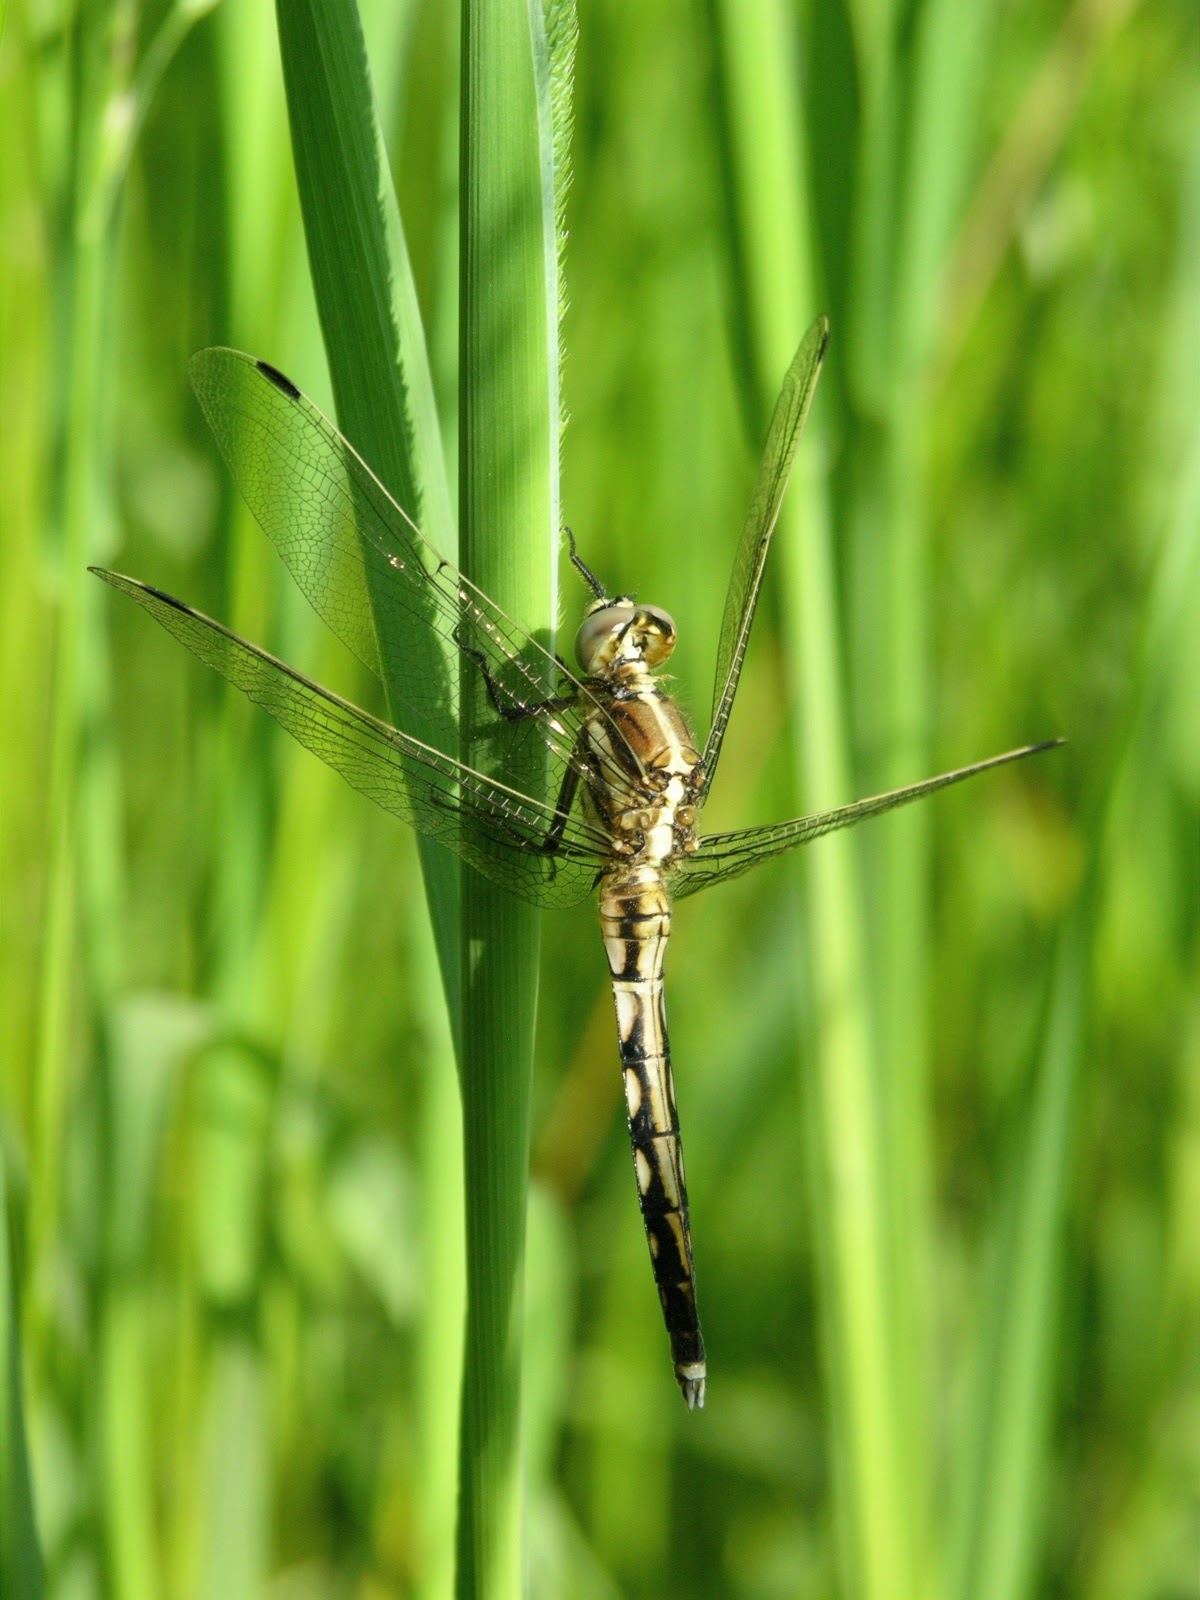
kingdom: Animalia
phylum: Arthropoda
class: Insecta
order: Odonata
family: Libellulidae
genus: Orthetrum
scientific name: Orthetrum albistylum
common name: White-tailed skimmer
